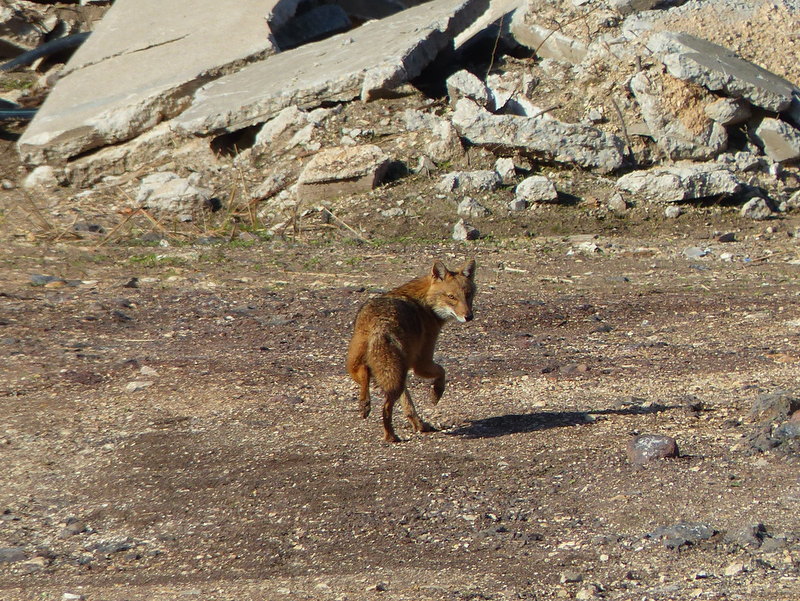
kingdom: Animalia
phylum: Chordata
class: Mammalia
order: Carnivora
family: Canidae
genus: Canis
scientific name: Canis aureus
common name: Golden jackal
